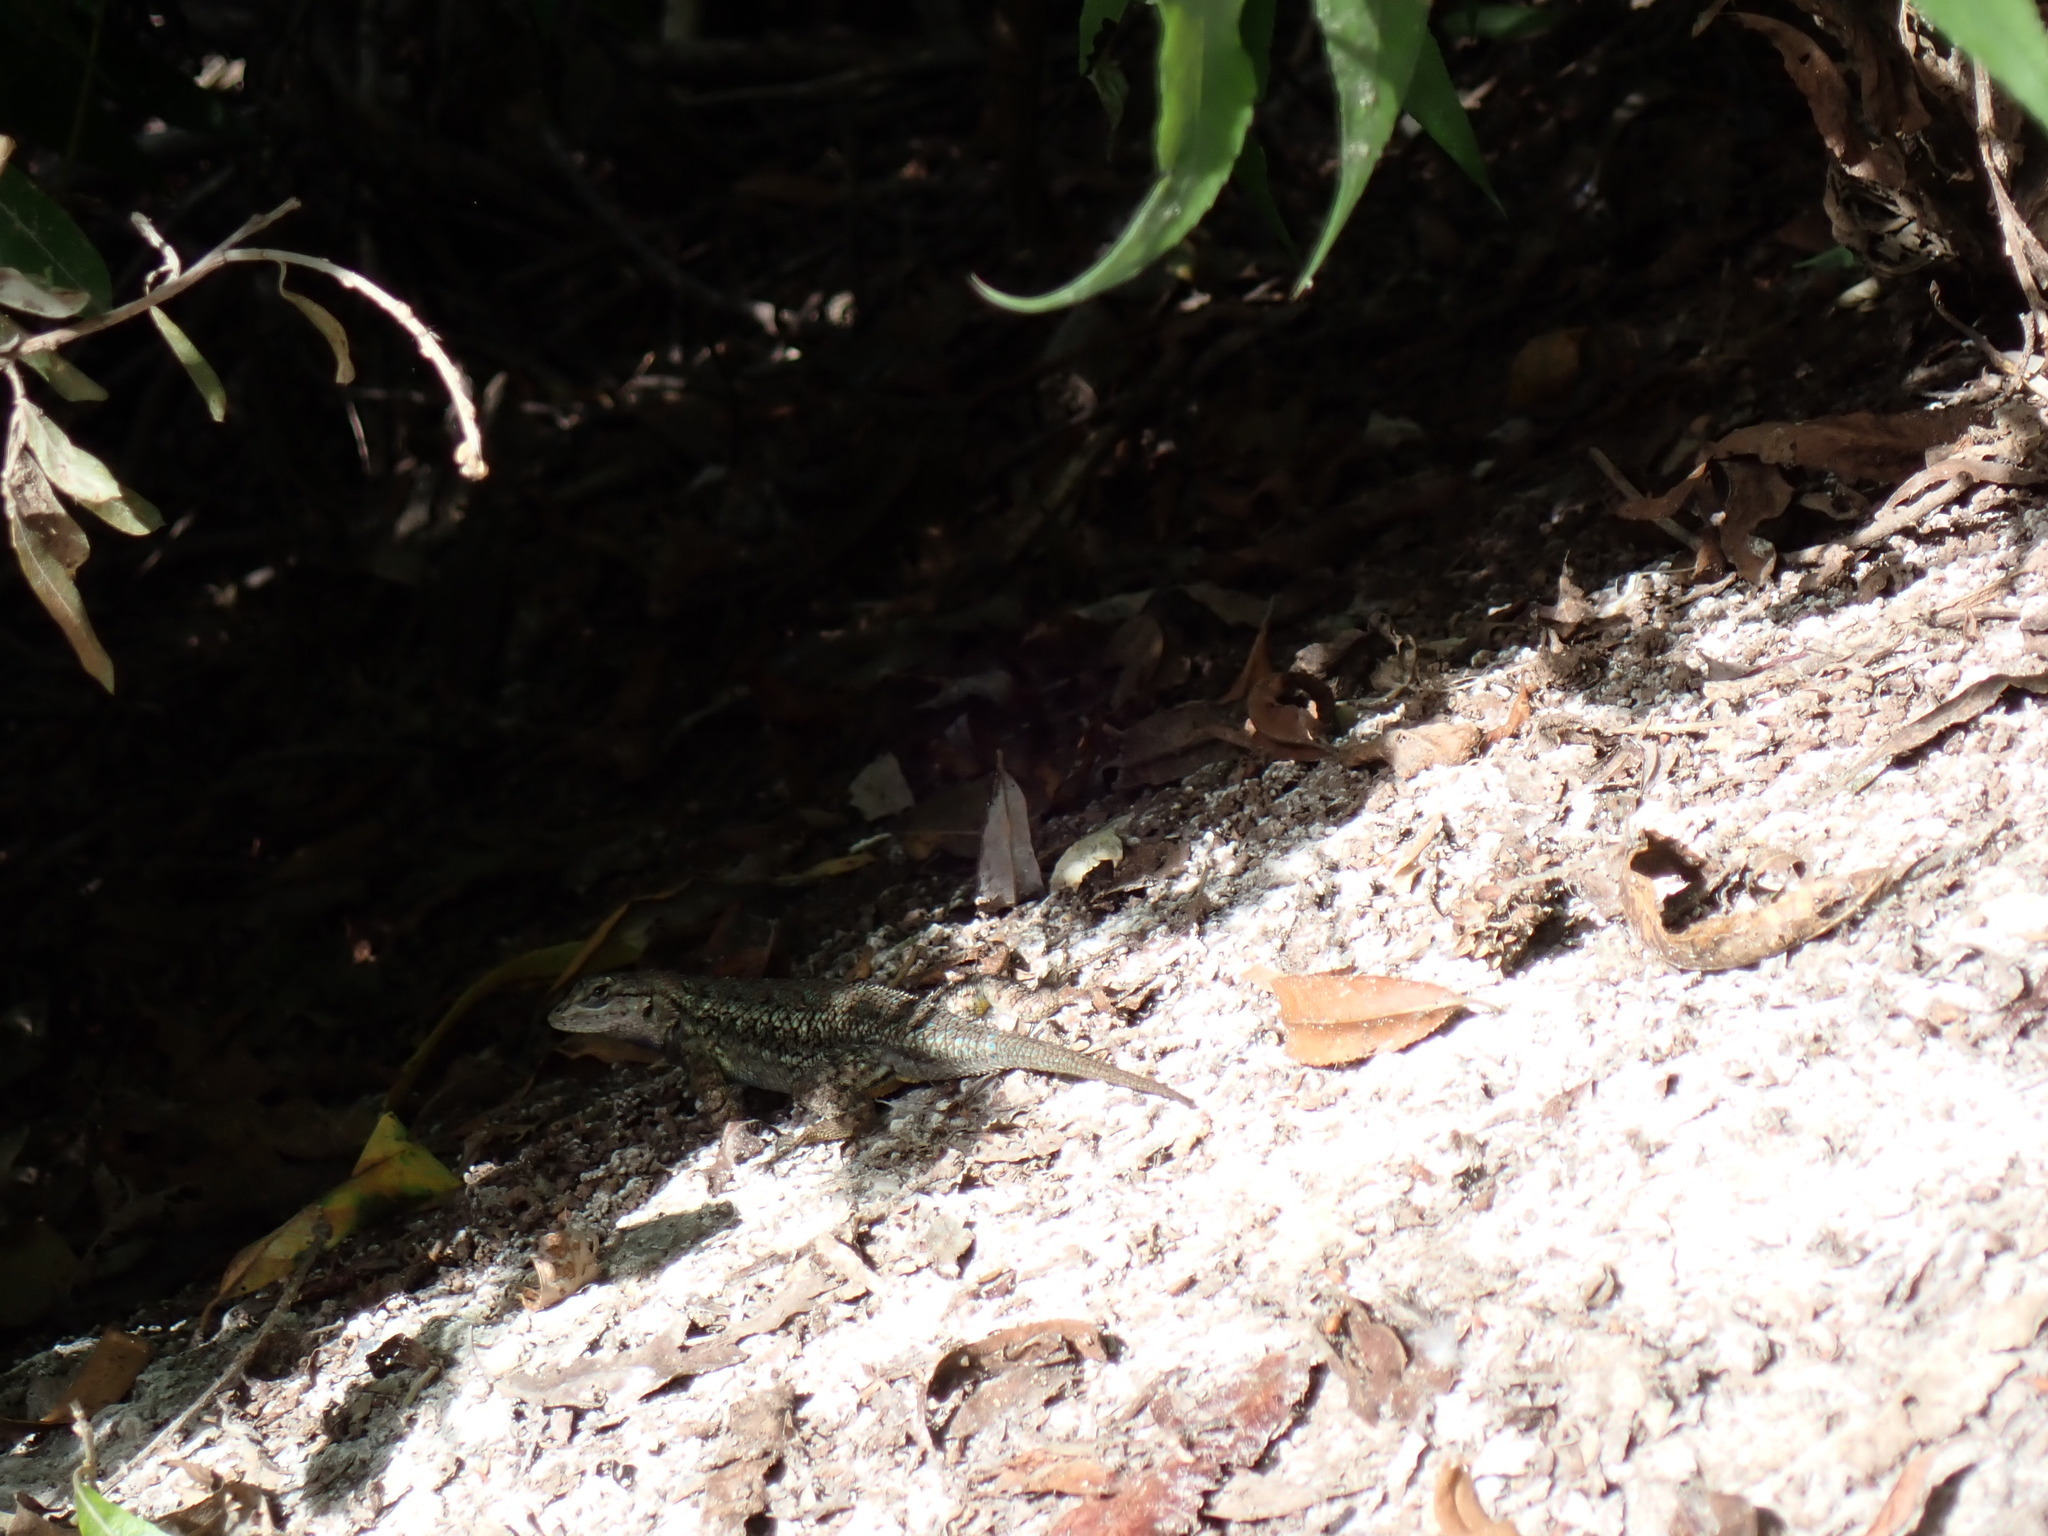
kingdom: Animalia
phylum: Chordata
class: Squamata
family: Phrynosomatidae
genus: Sceloporus
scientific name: Sceloporus occidentalis
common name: Western fence lizard
